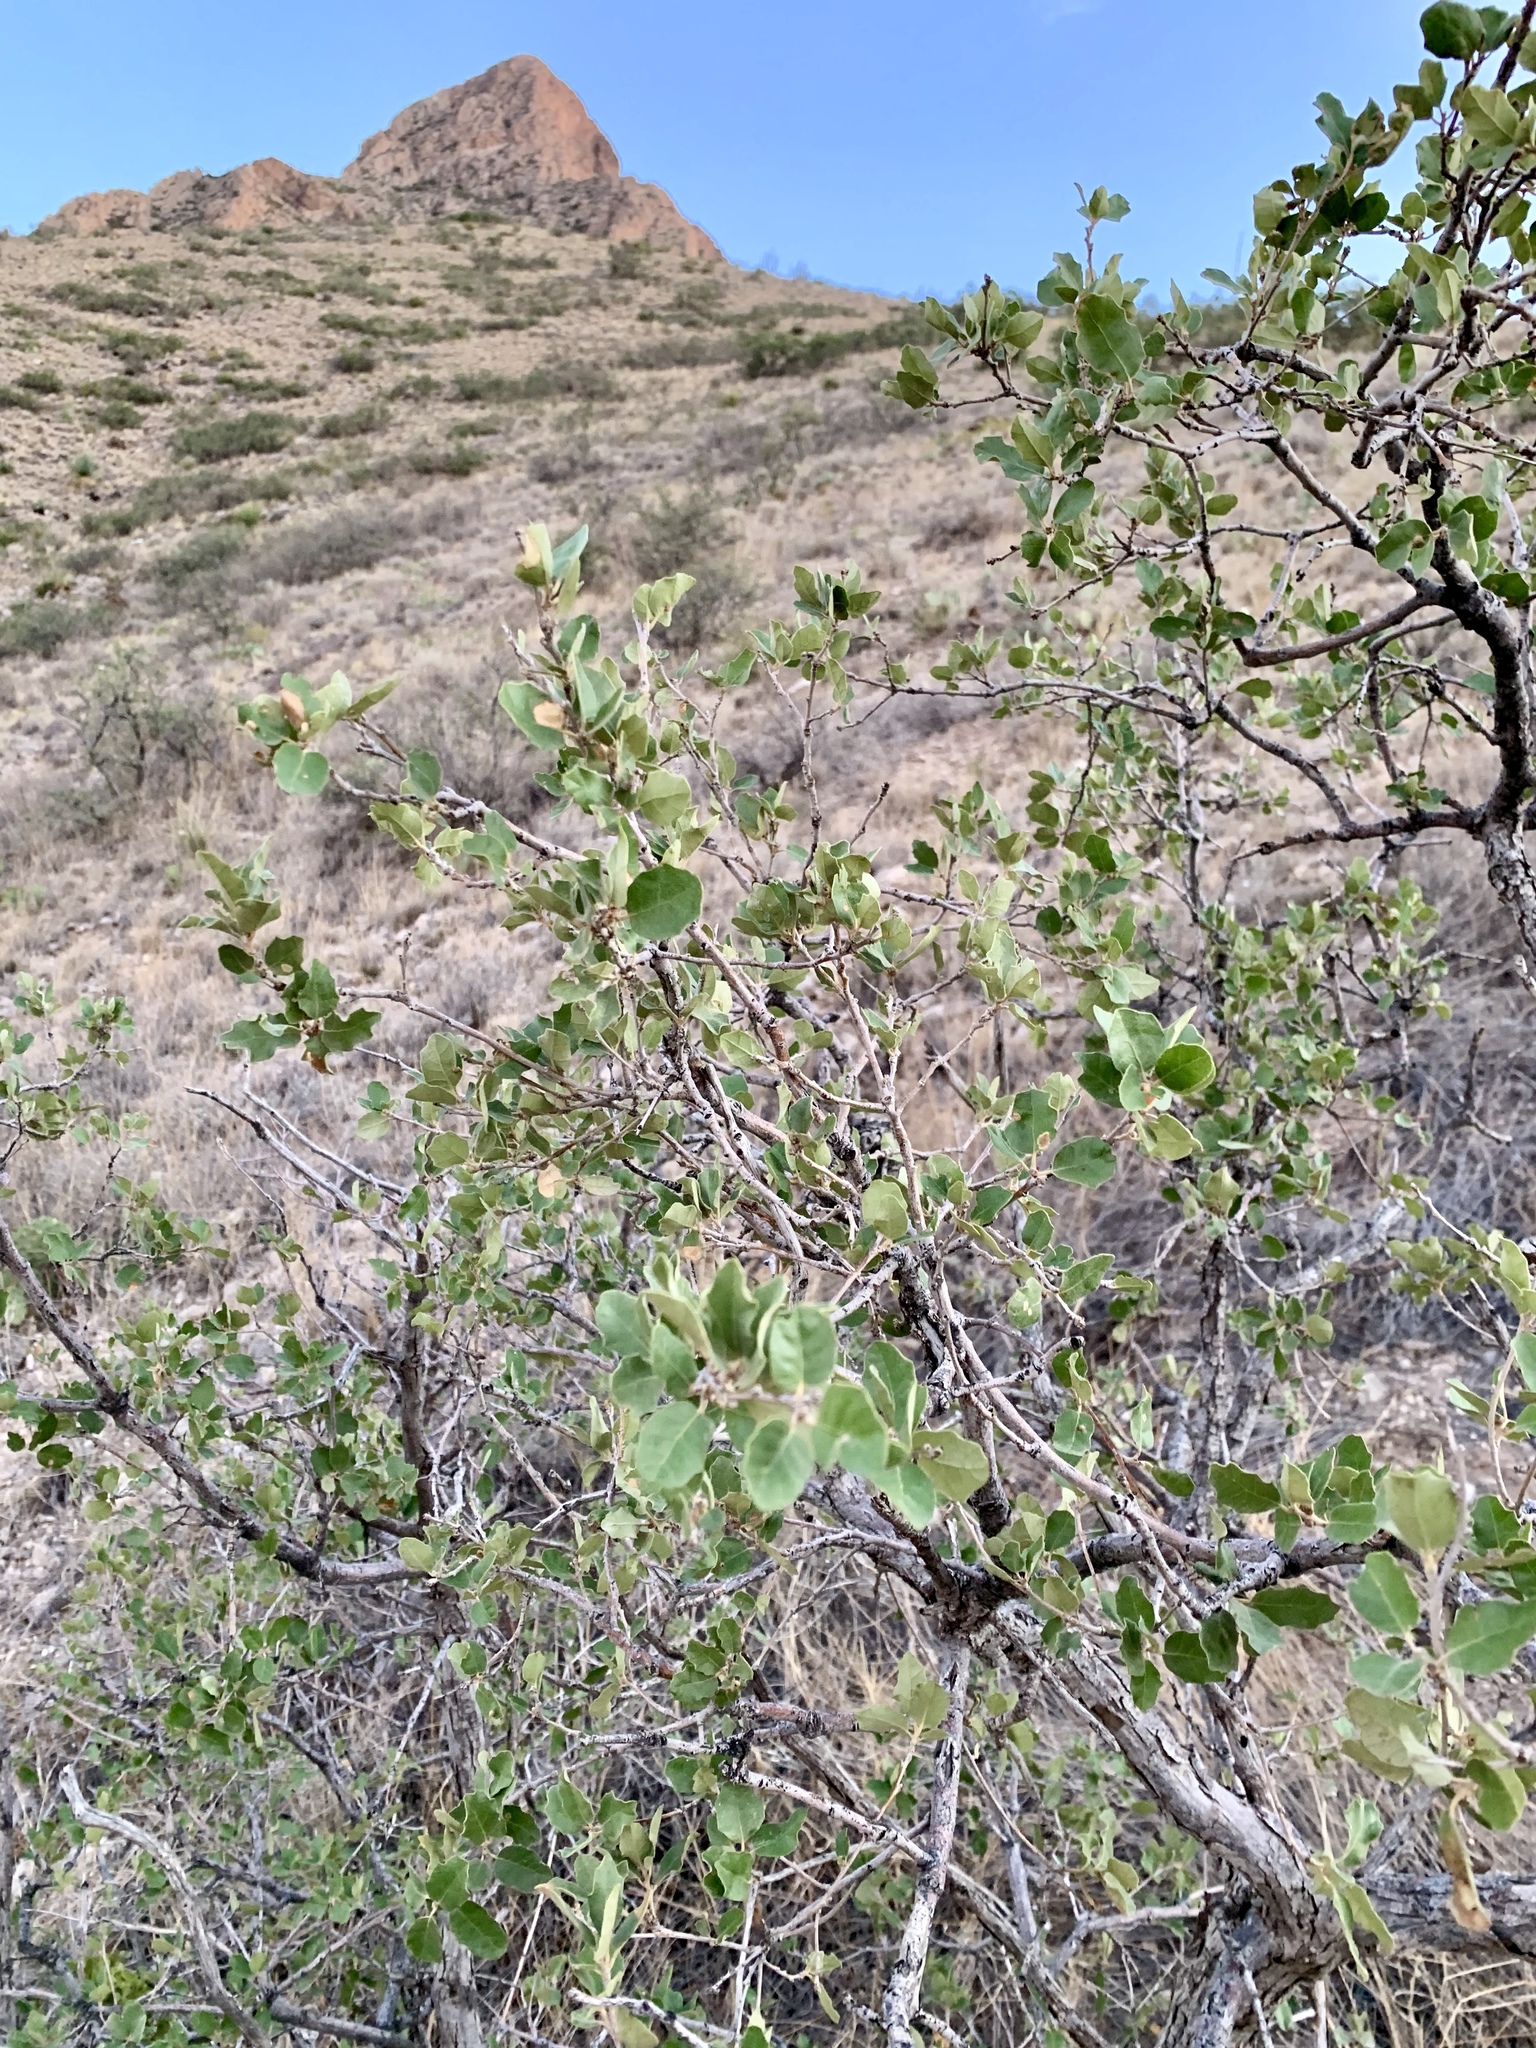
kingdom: Plantae
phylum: Tracheophyta
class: Magnoliopsida
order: Fagales
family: Fagaceae
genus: Quercus
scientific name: Quercus turbinella
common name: Sonoran scrub oak
